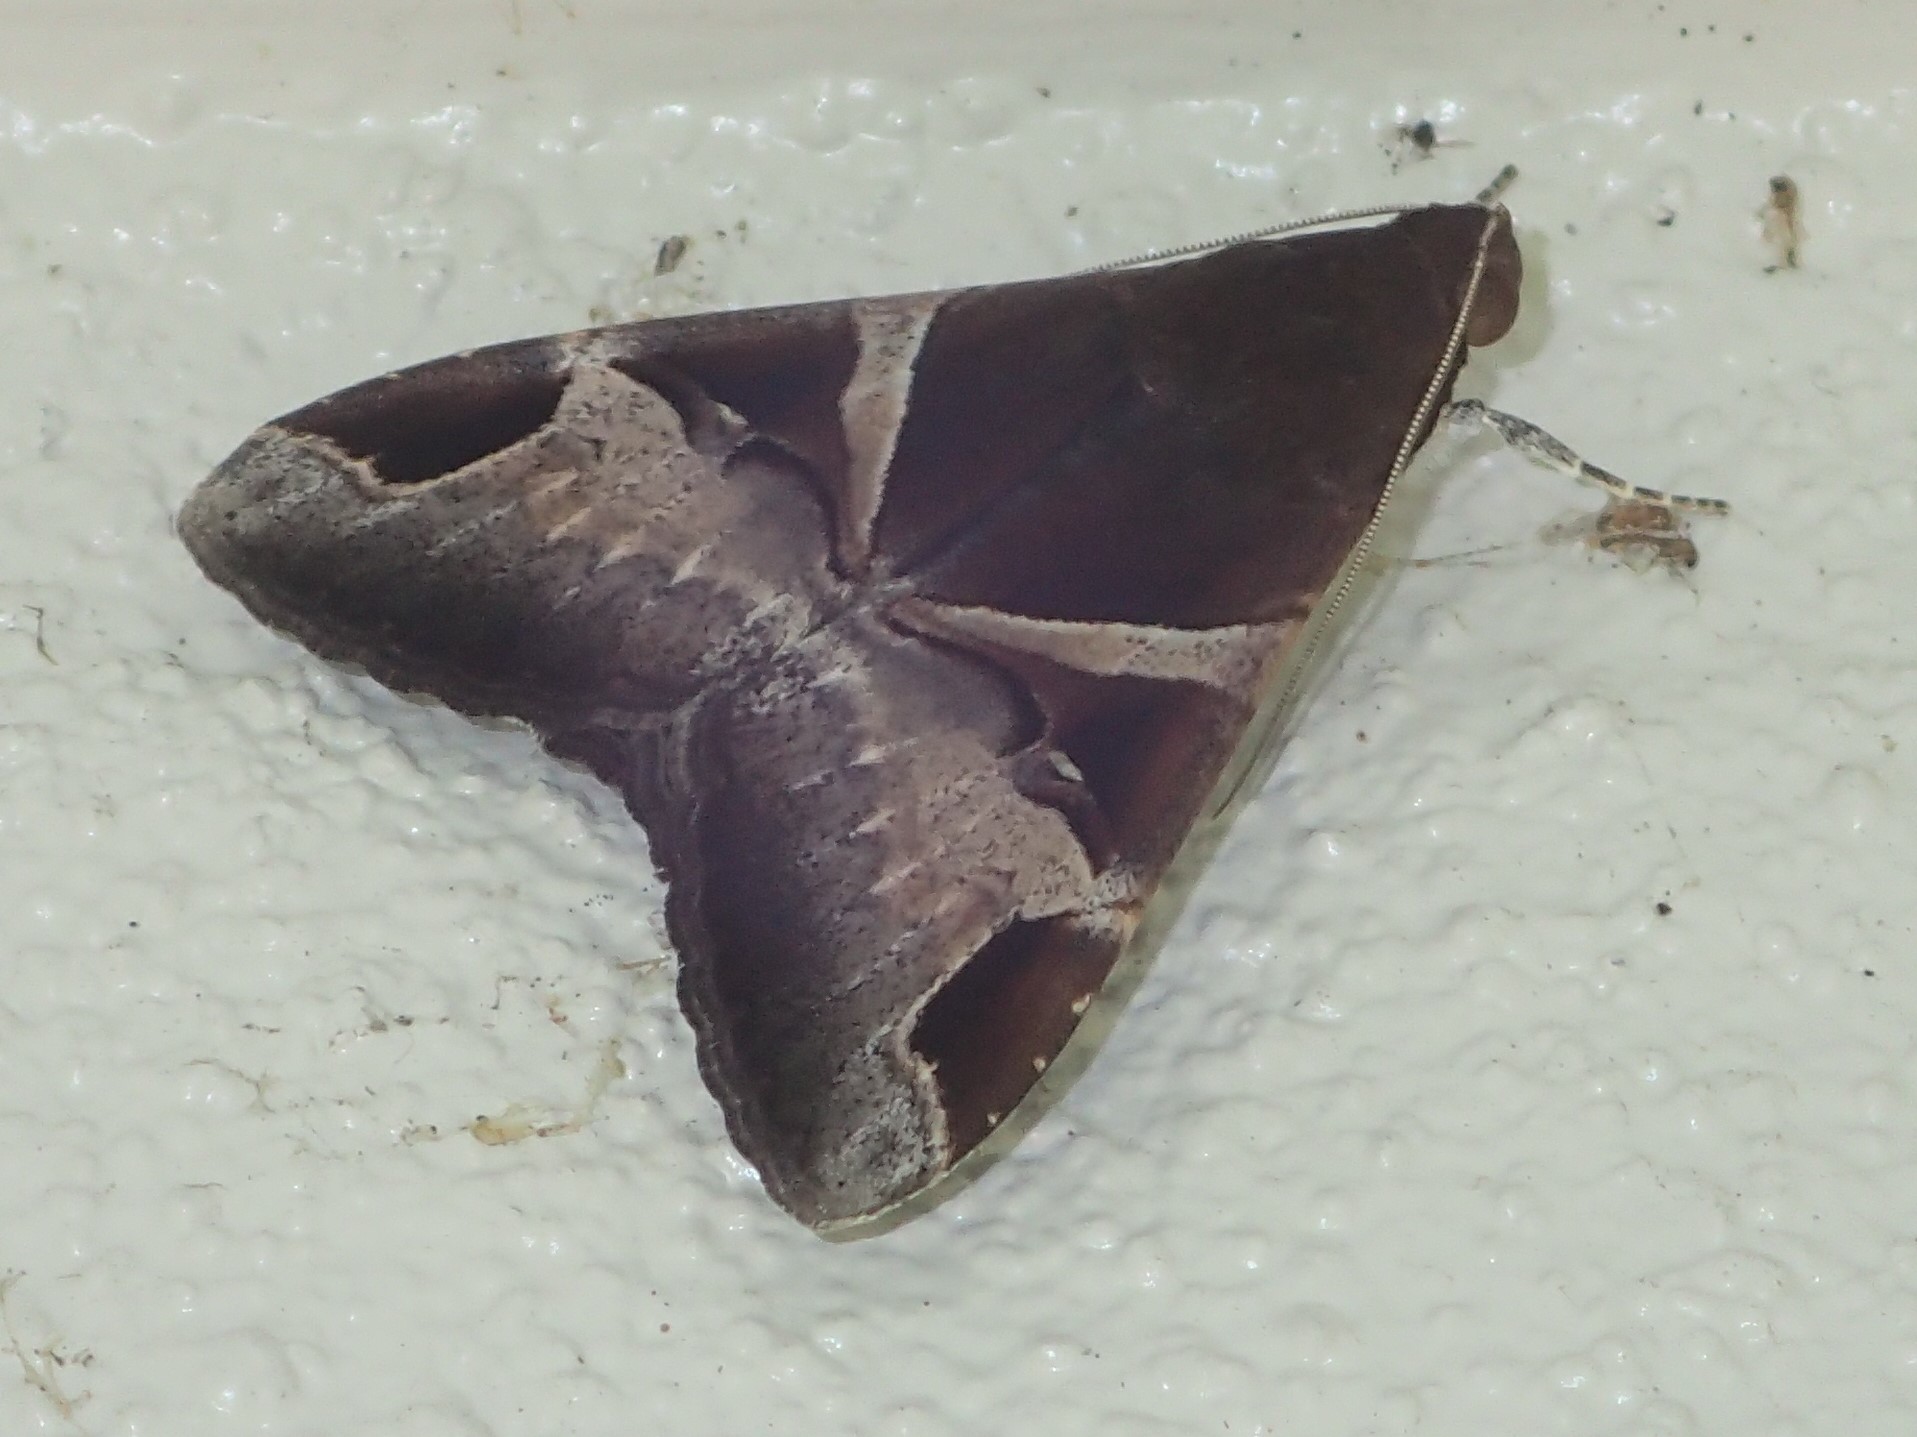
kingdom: Animalia
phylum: Arthropoda
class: Insecta
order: Lepidoptera
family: Erebidae
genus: Melipotis
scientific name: Melipotis fasciolaris
